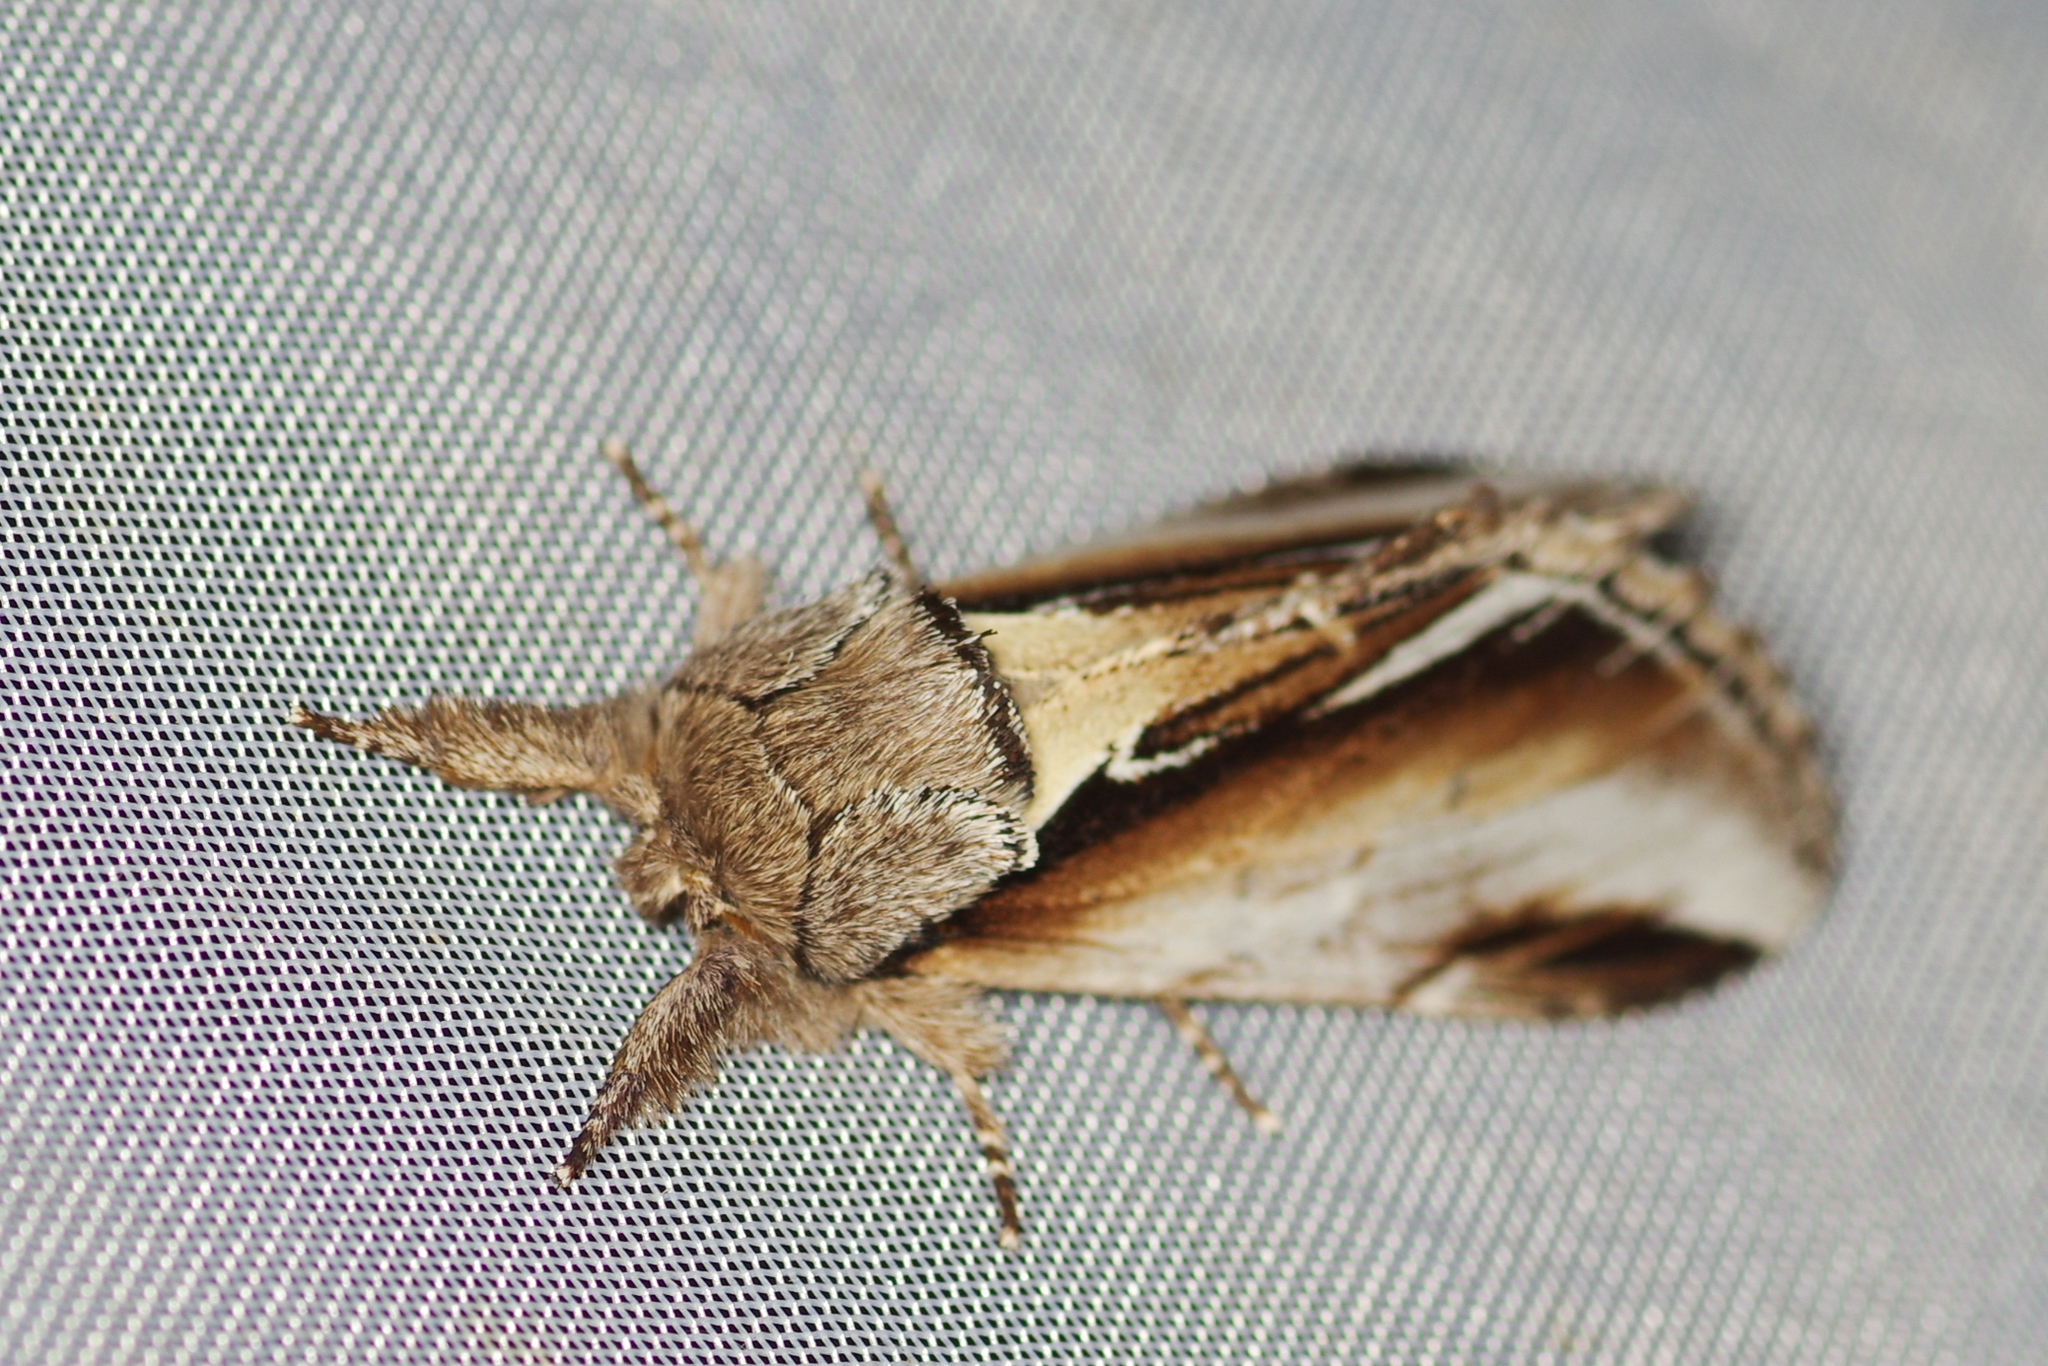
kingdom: Animalia
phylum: Arthropoda
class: Insecta
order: Lepidoptera
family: Notodontidae
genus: Pheosia
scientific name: Pheosia gnoma
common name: Lesser swallow prominent
